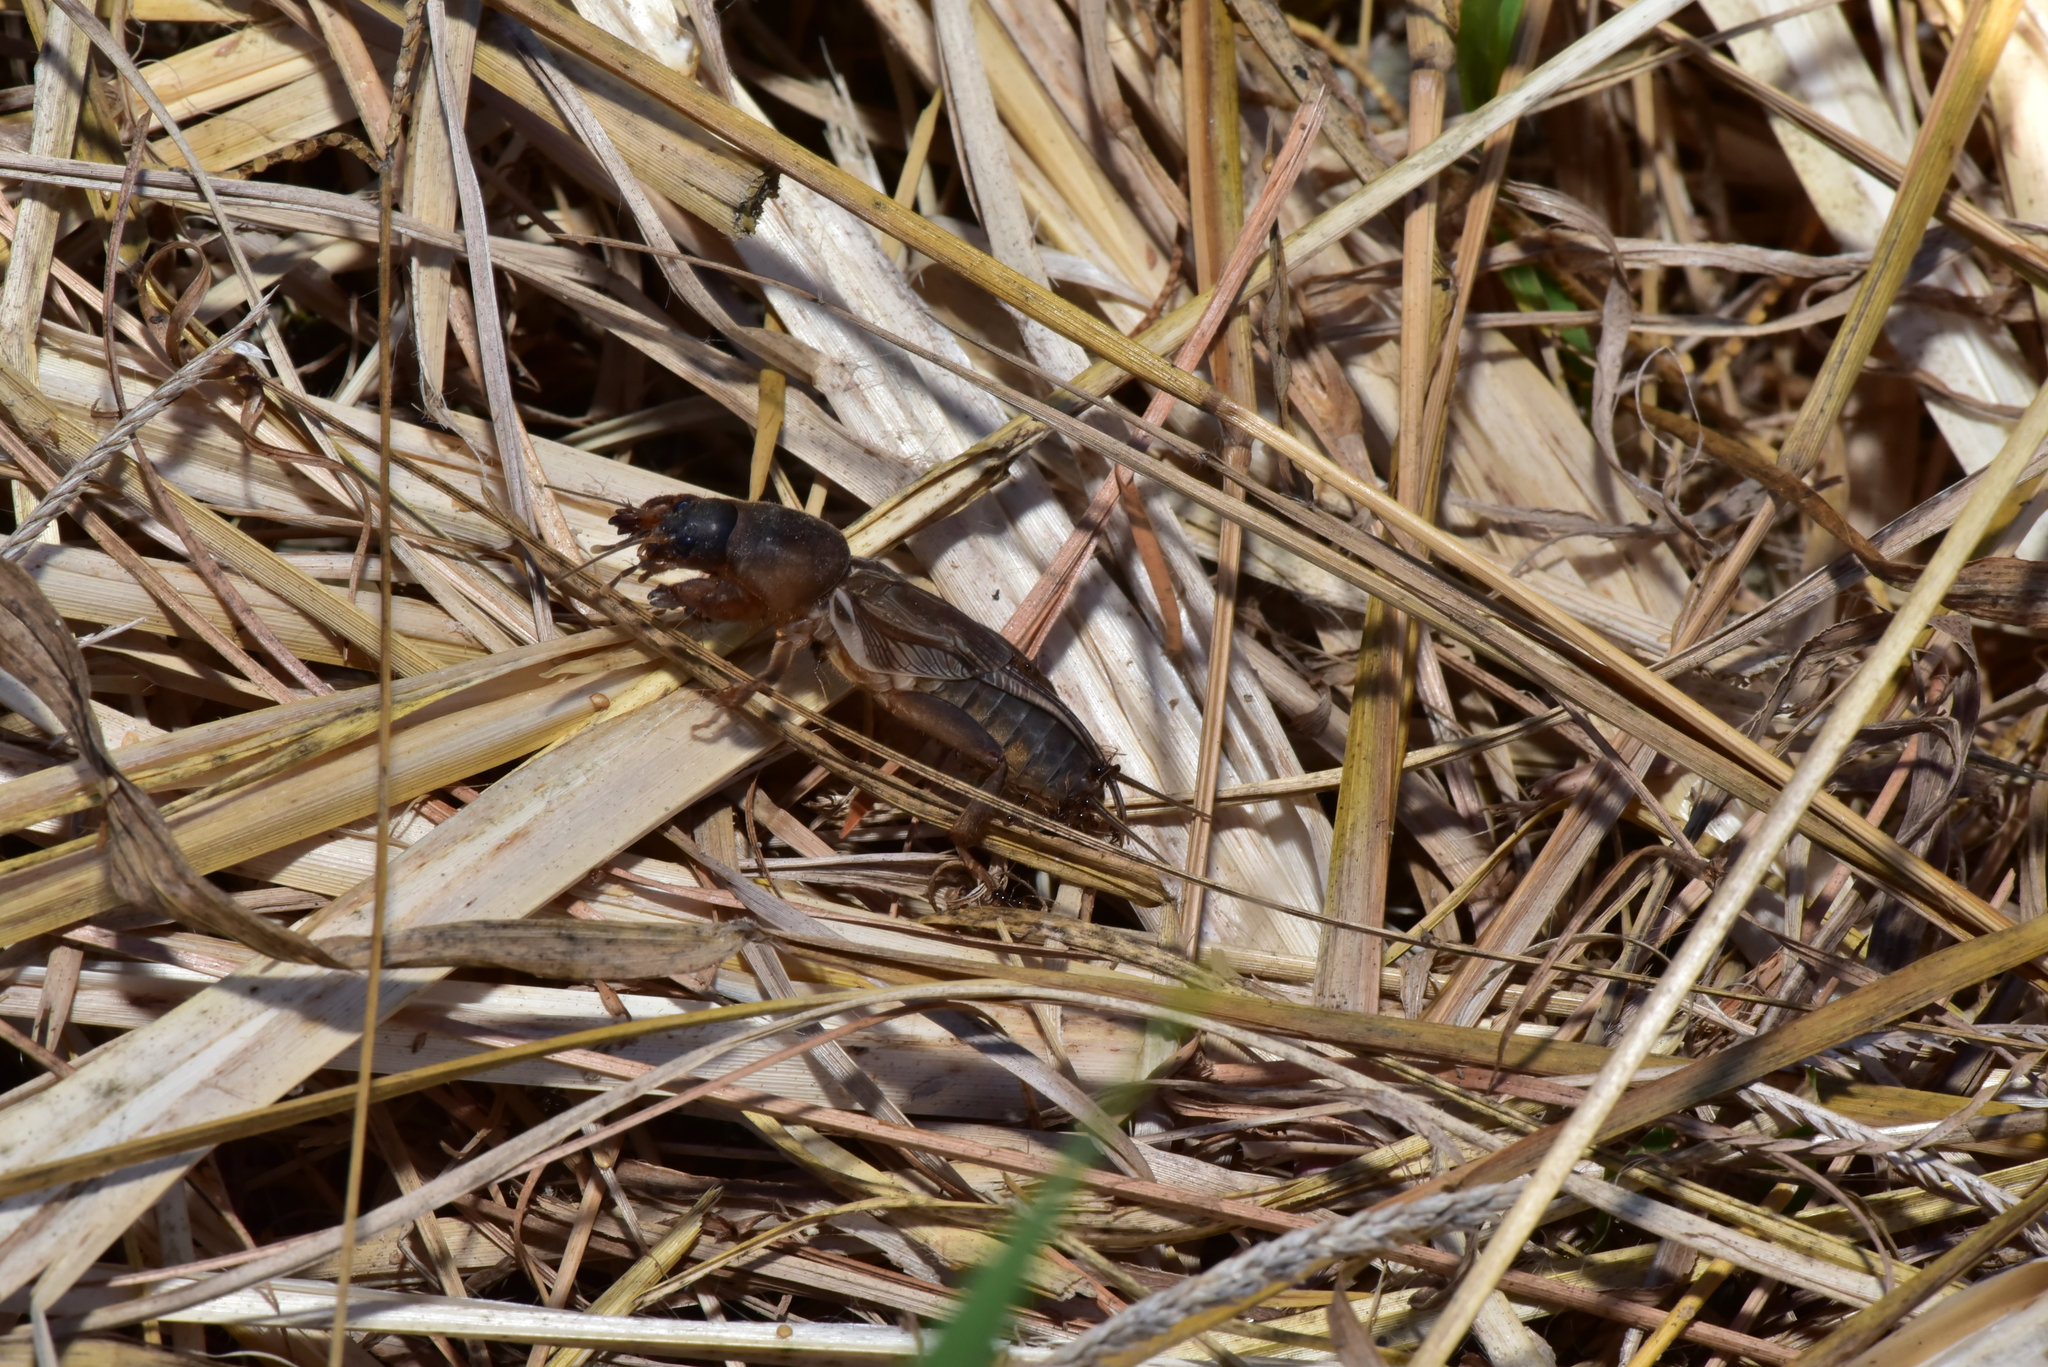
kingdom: Animalia
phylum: Arthropoda
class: Insecta
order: Orthoptera
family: Gryllotalpidae
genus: Gryllotalpa
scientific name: Gryllotalpa orientalis
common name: Grasshopper
